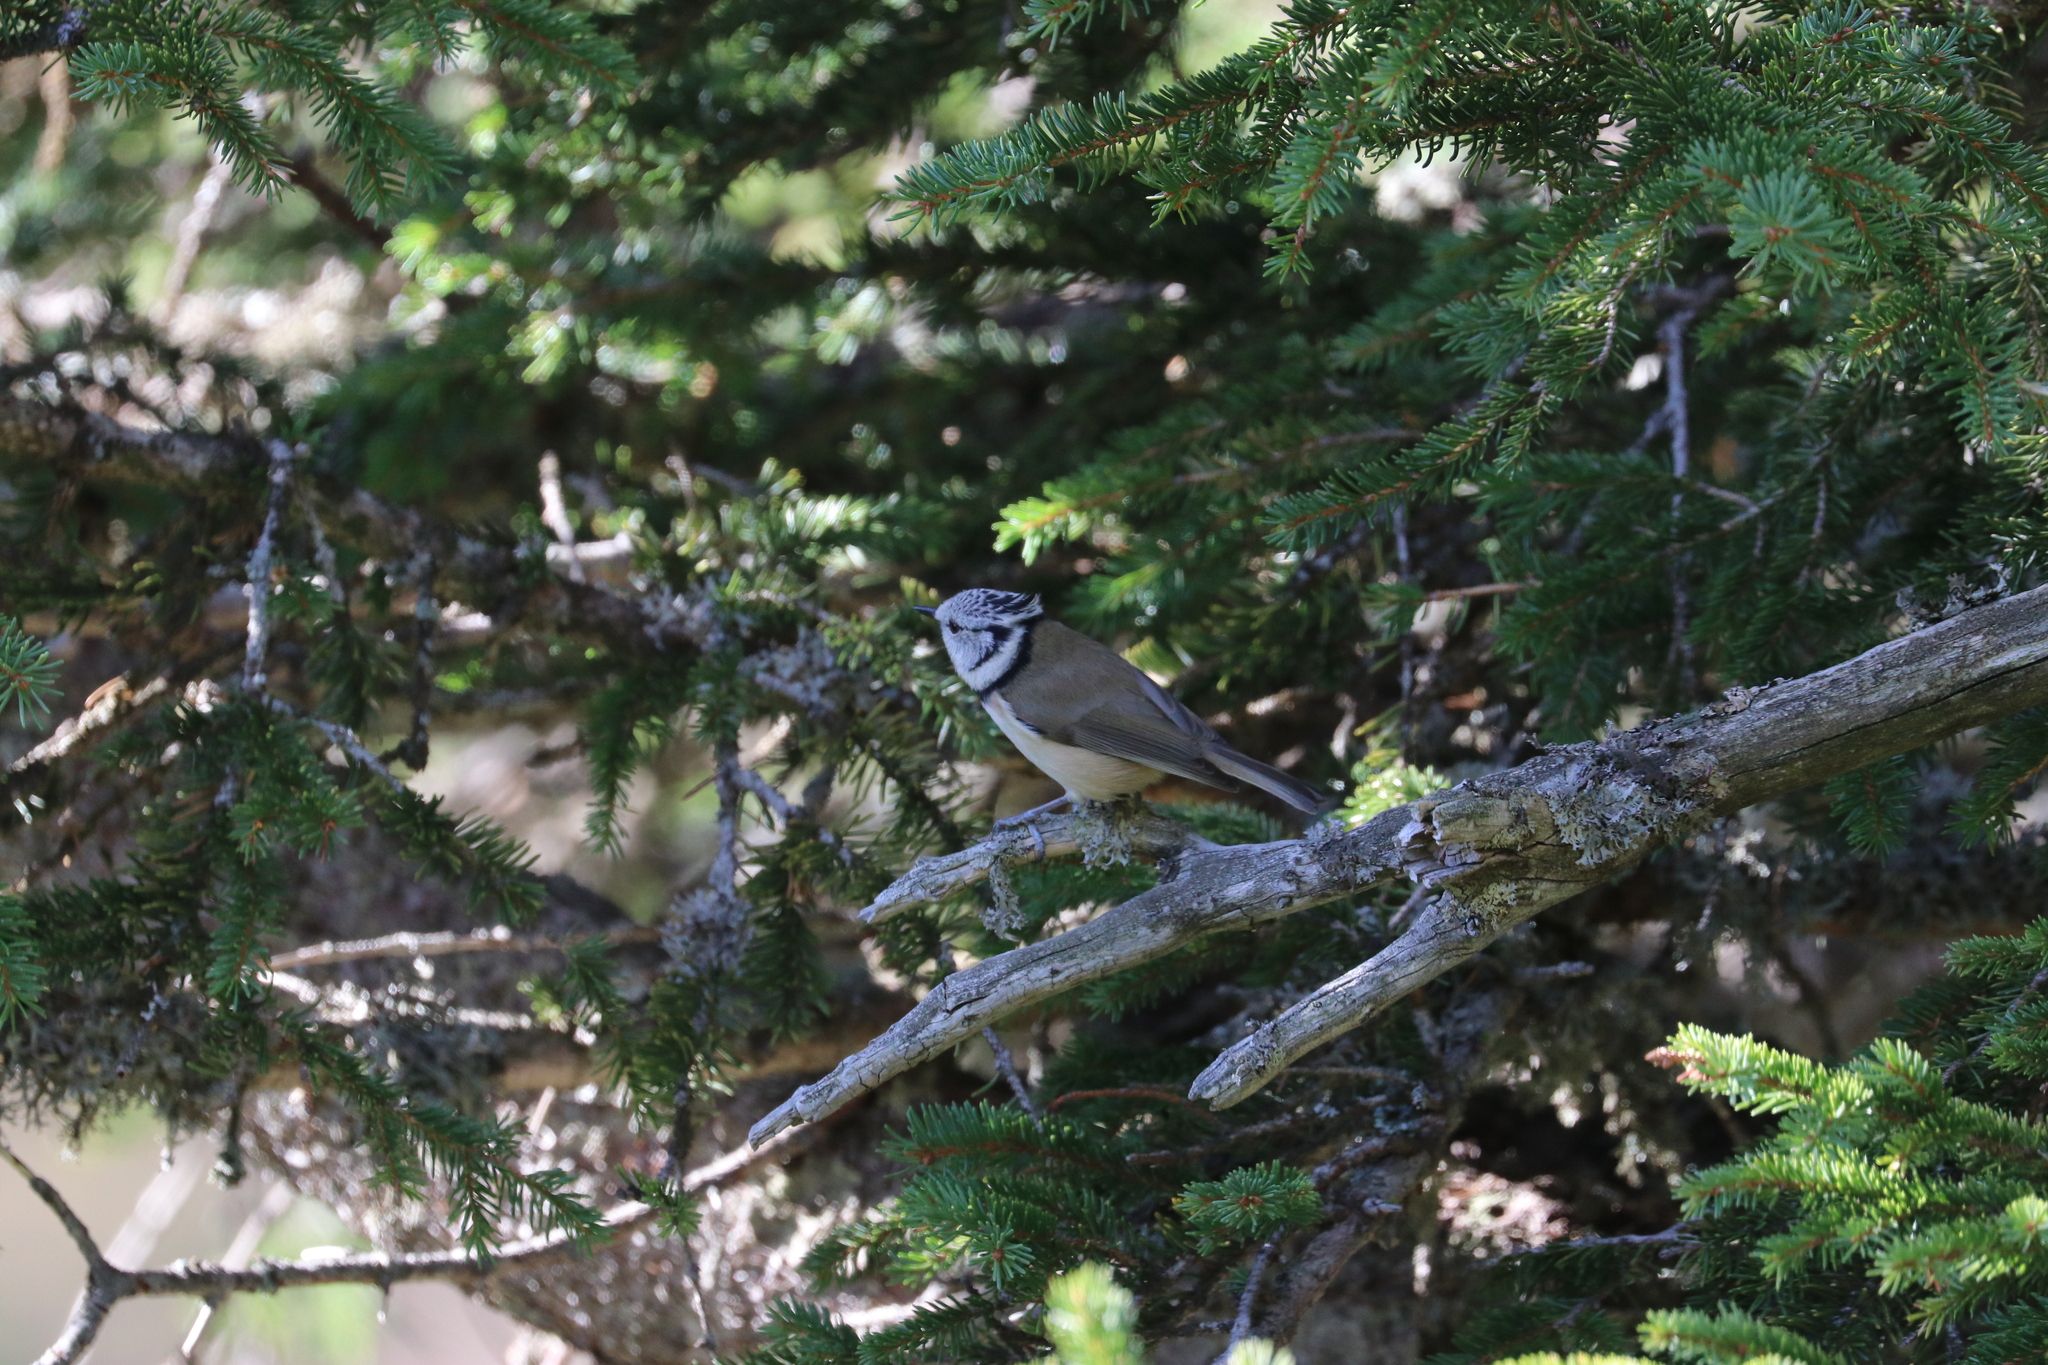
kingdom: Animalia
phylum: Chordata
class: Aves
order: Passeriformes
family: Paridae
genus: Lophophanes
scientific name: Lophophanes cristatus
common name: European crested tit
